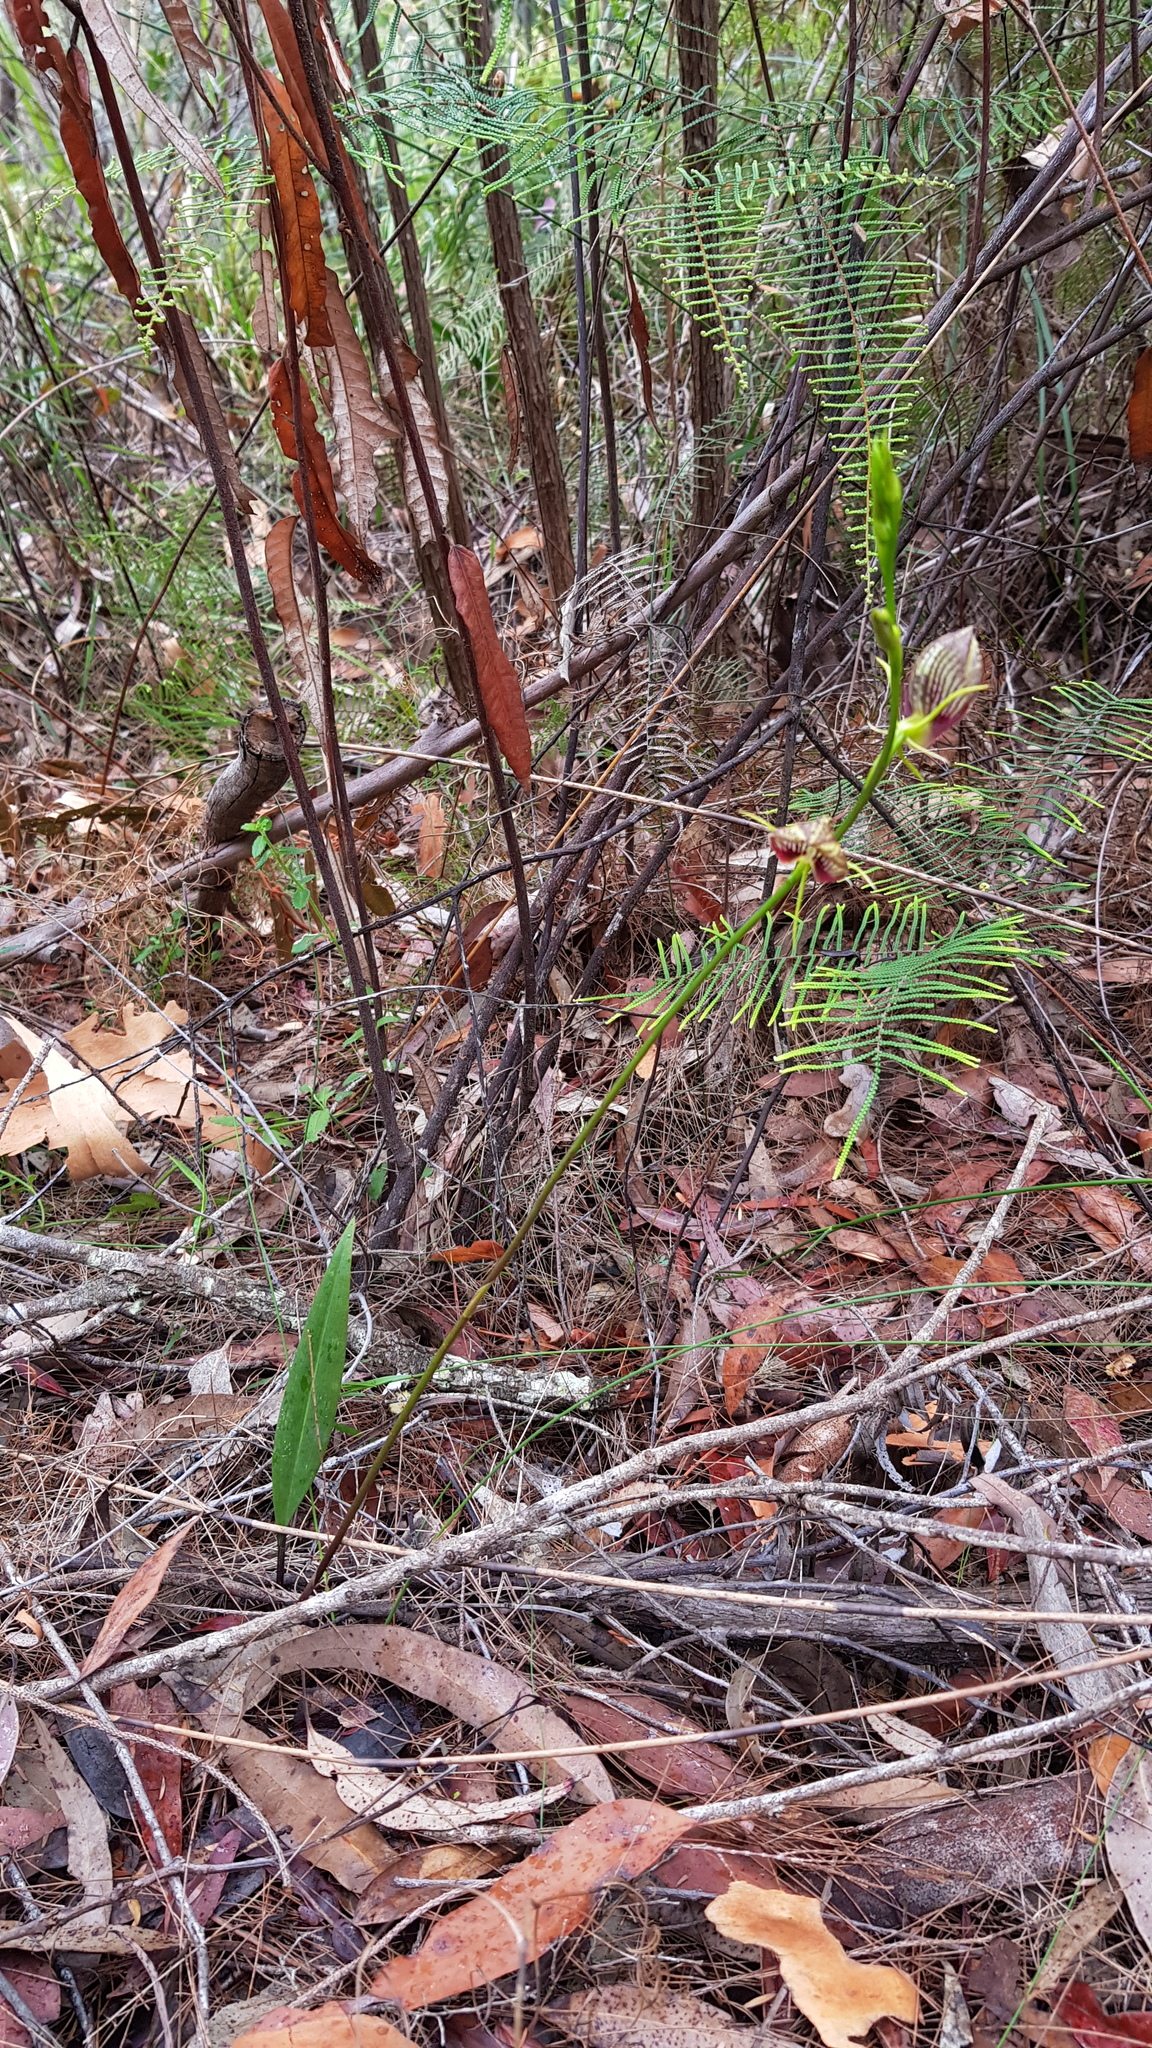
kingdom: Plantae
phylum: Tracheophyta
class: Liliopsida
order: Asparagales
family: Orchidaceae
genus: Cryptostylis
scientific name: Cryptostylis erecta
